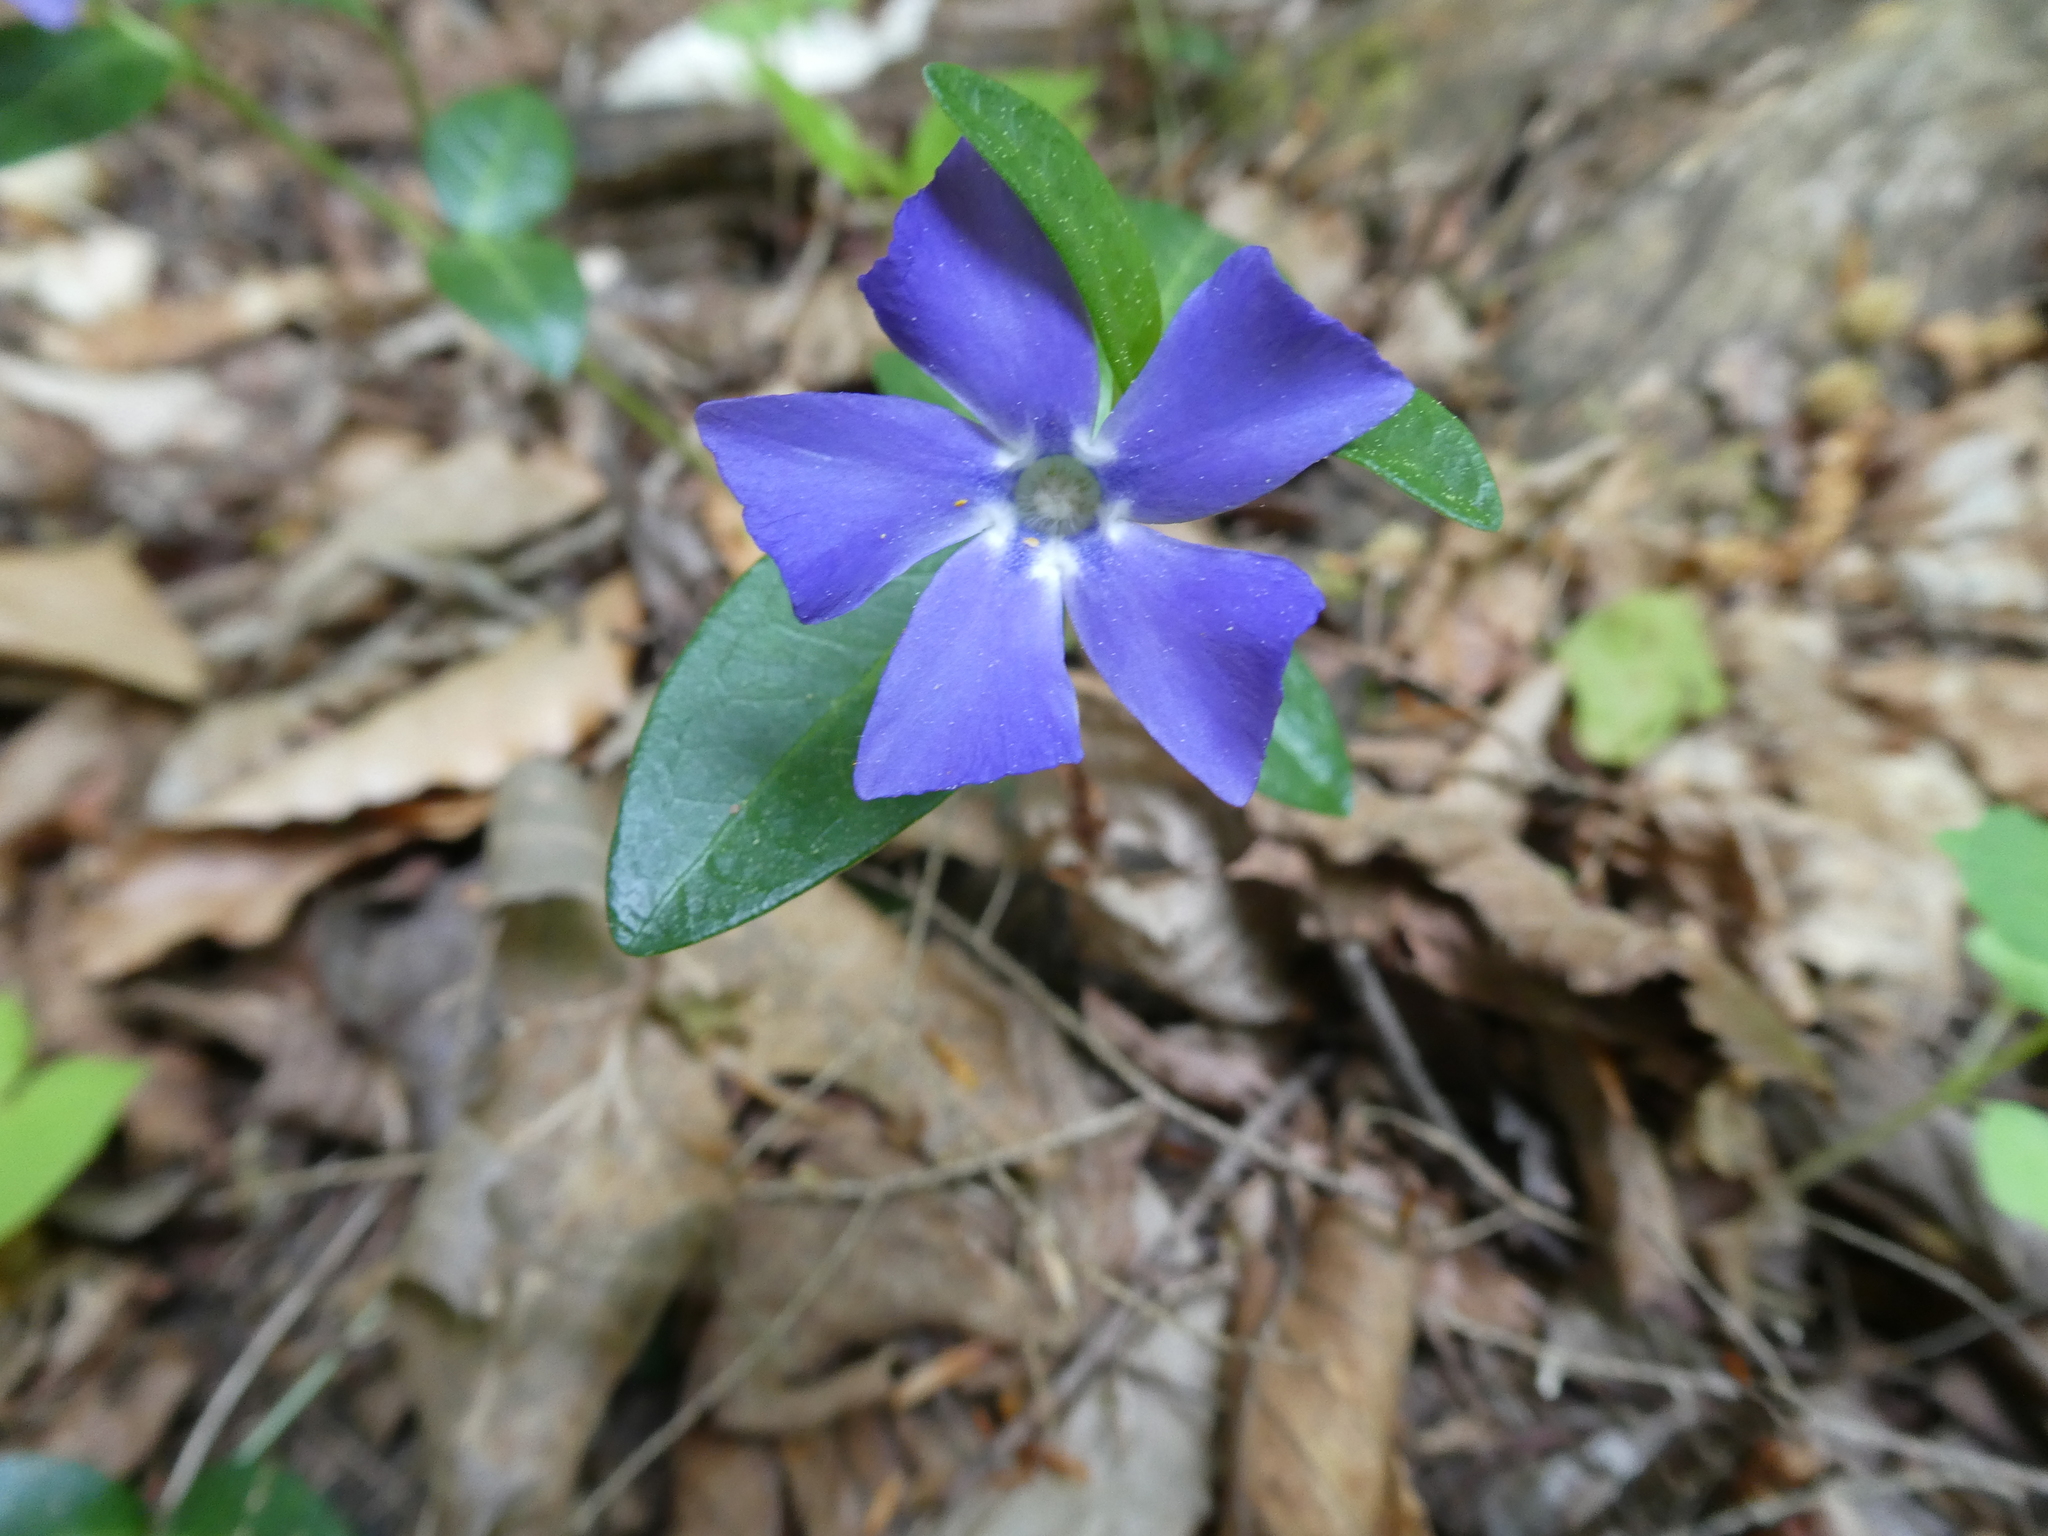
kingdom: Plantae
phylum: Tracheophyta
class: Magnoliopsida
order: Gentianales
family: Apocynaceae
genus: Vinca
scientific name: Vinca minor
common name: Lesser periwinkle
